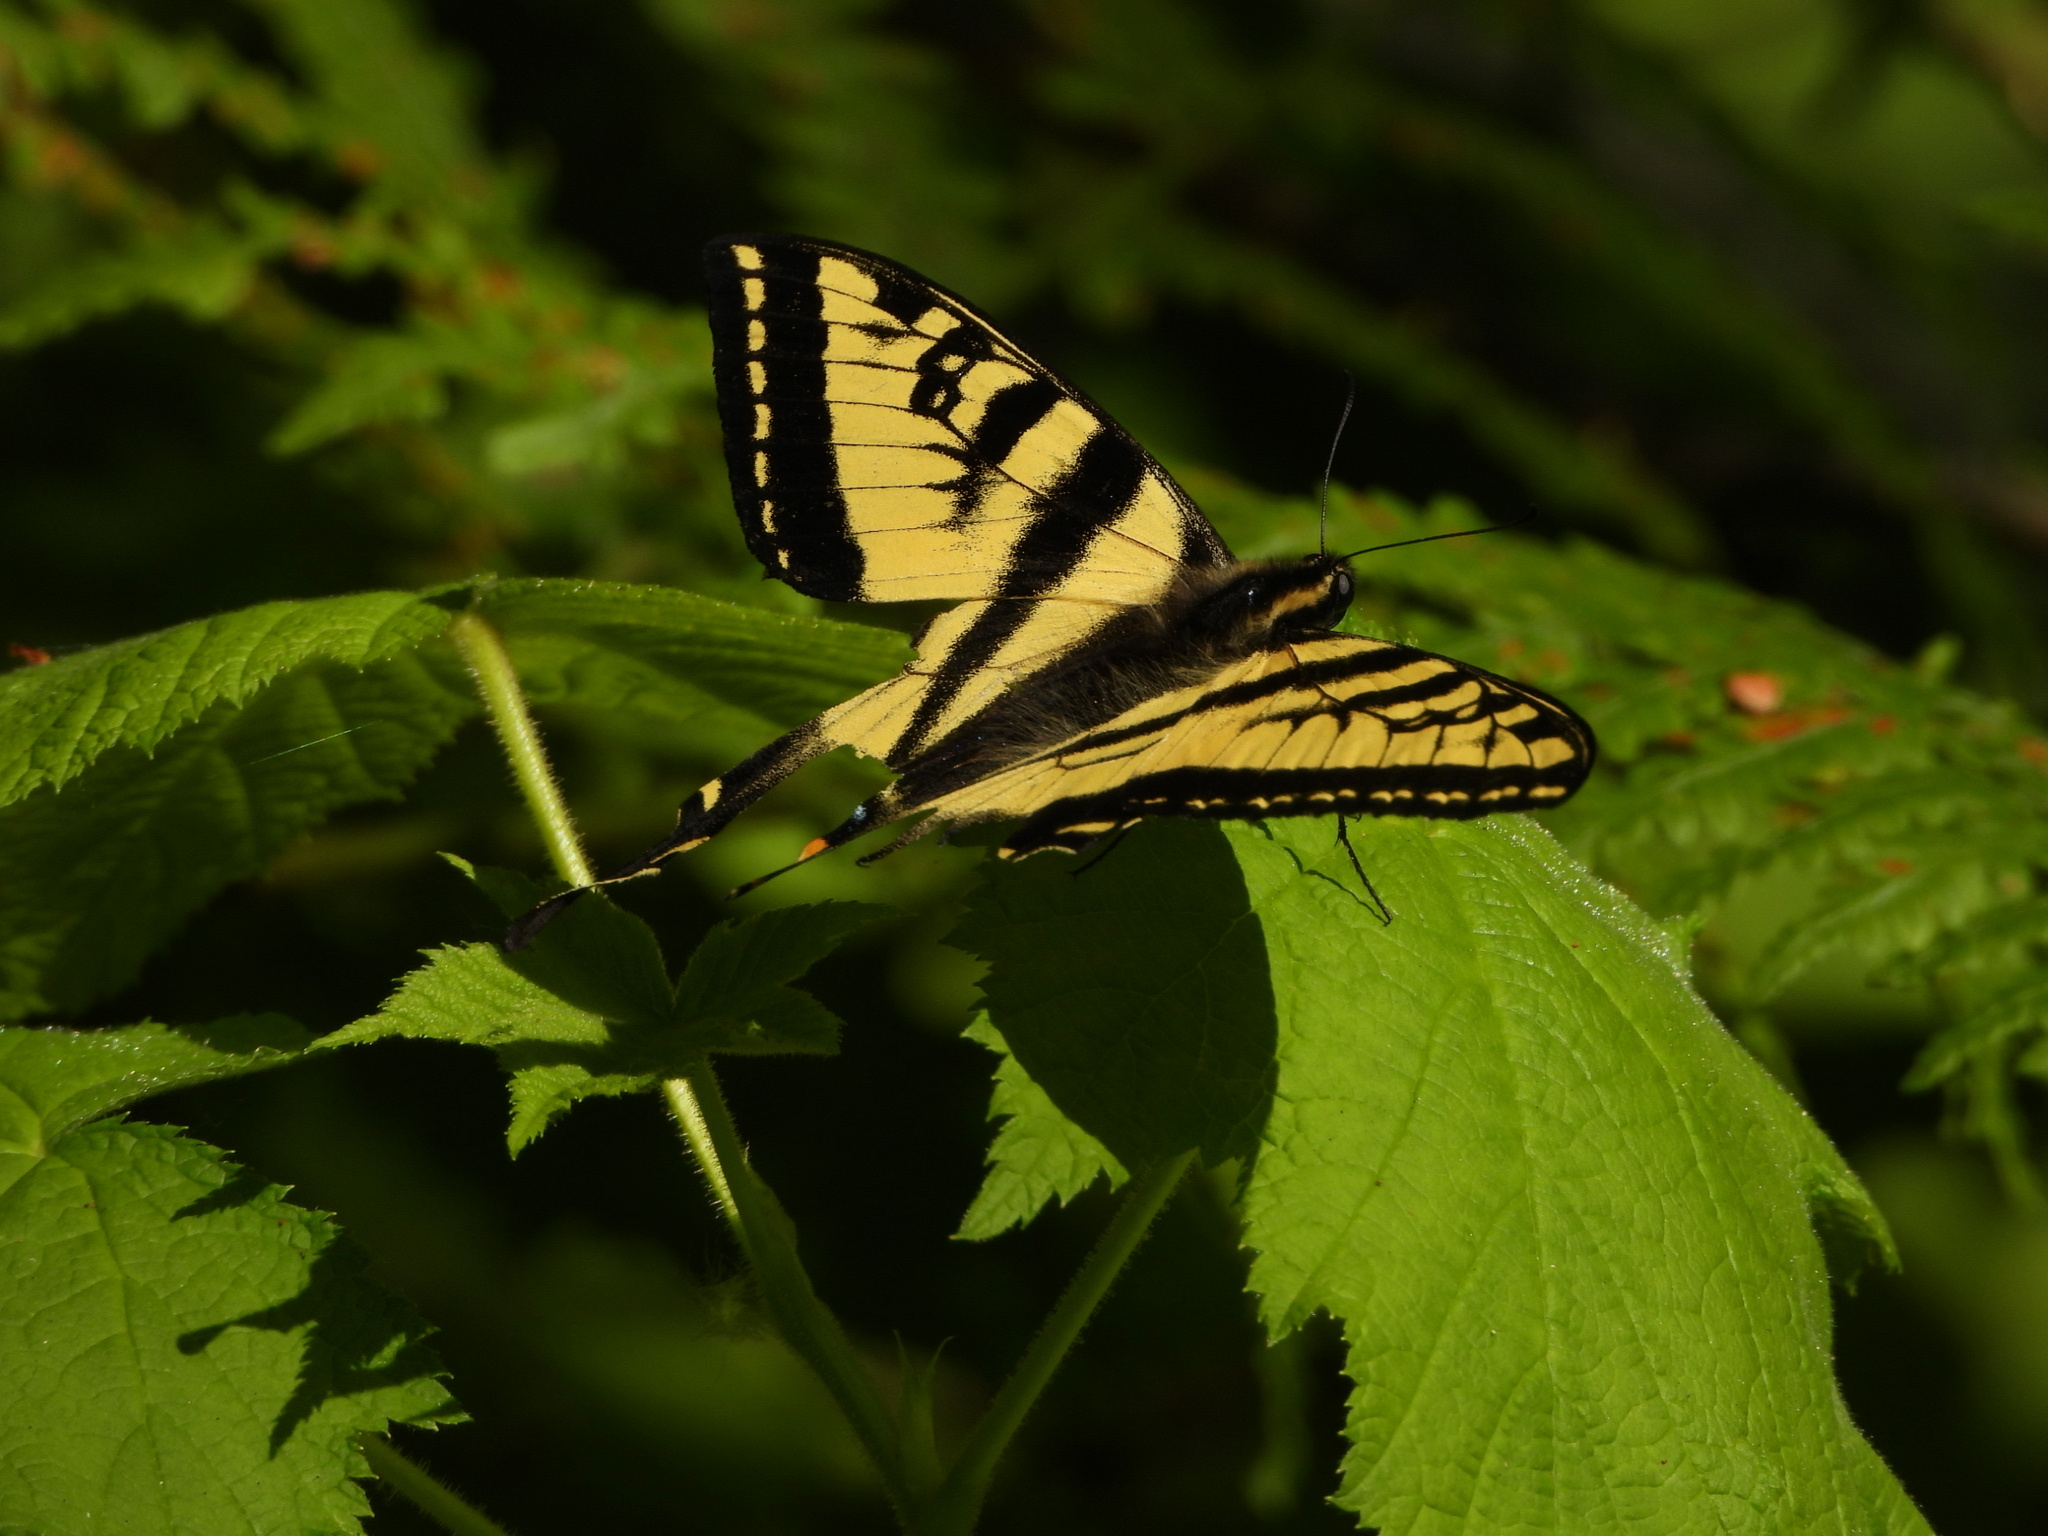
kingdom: Animalia
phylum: Arthropoda
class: Insecta
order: Lepidoptera
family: Papilionidae
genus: Papilio
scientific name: Papilio rutulus
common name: Western tiger swallowtail
